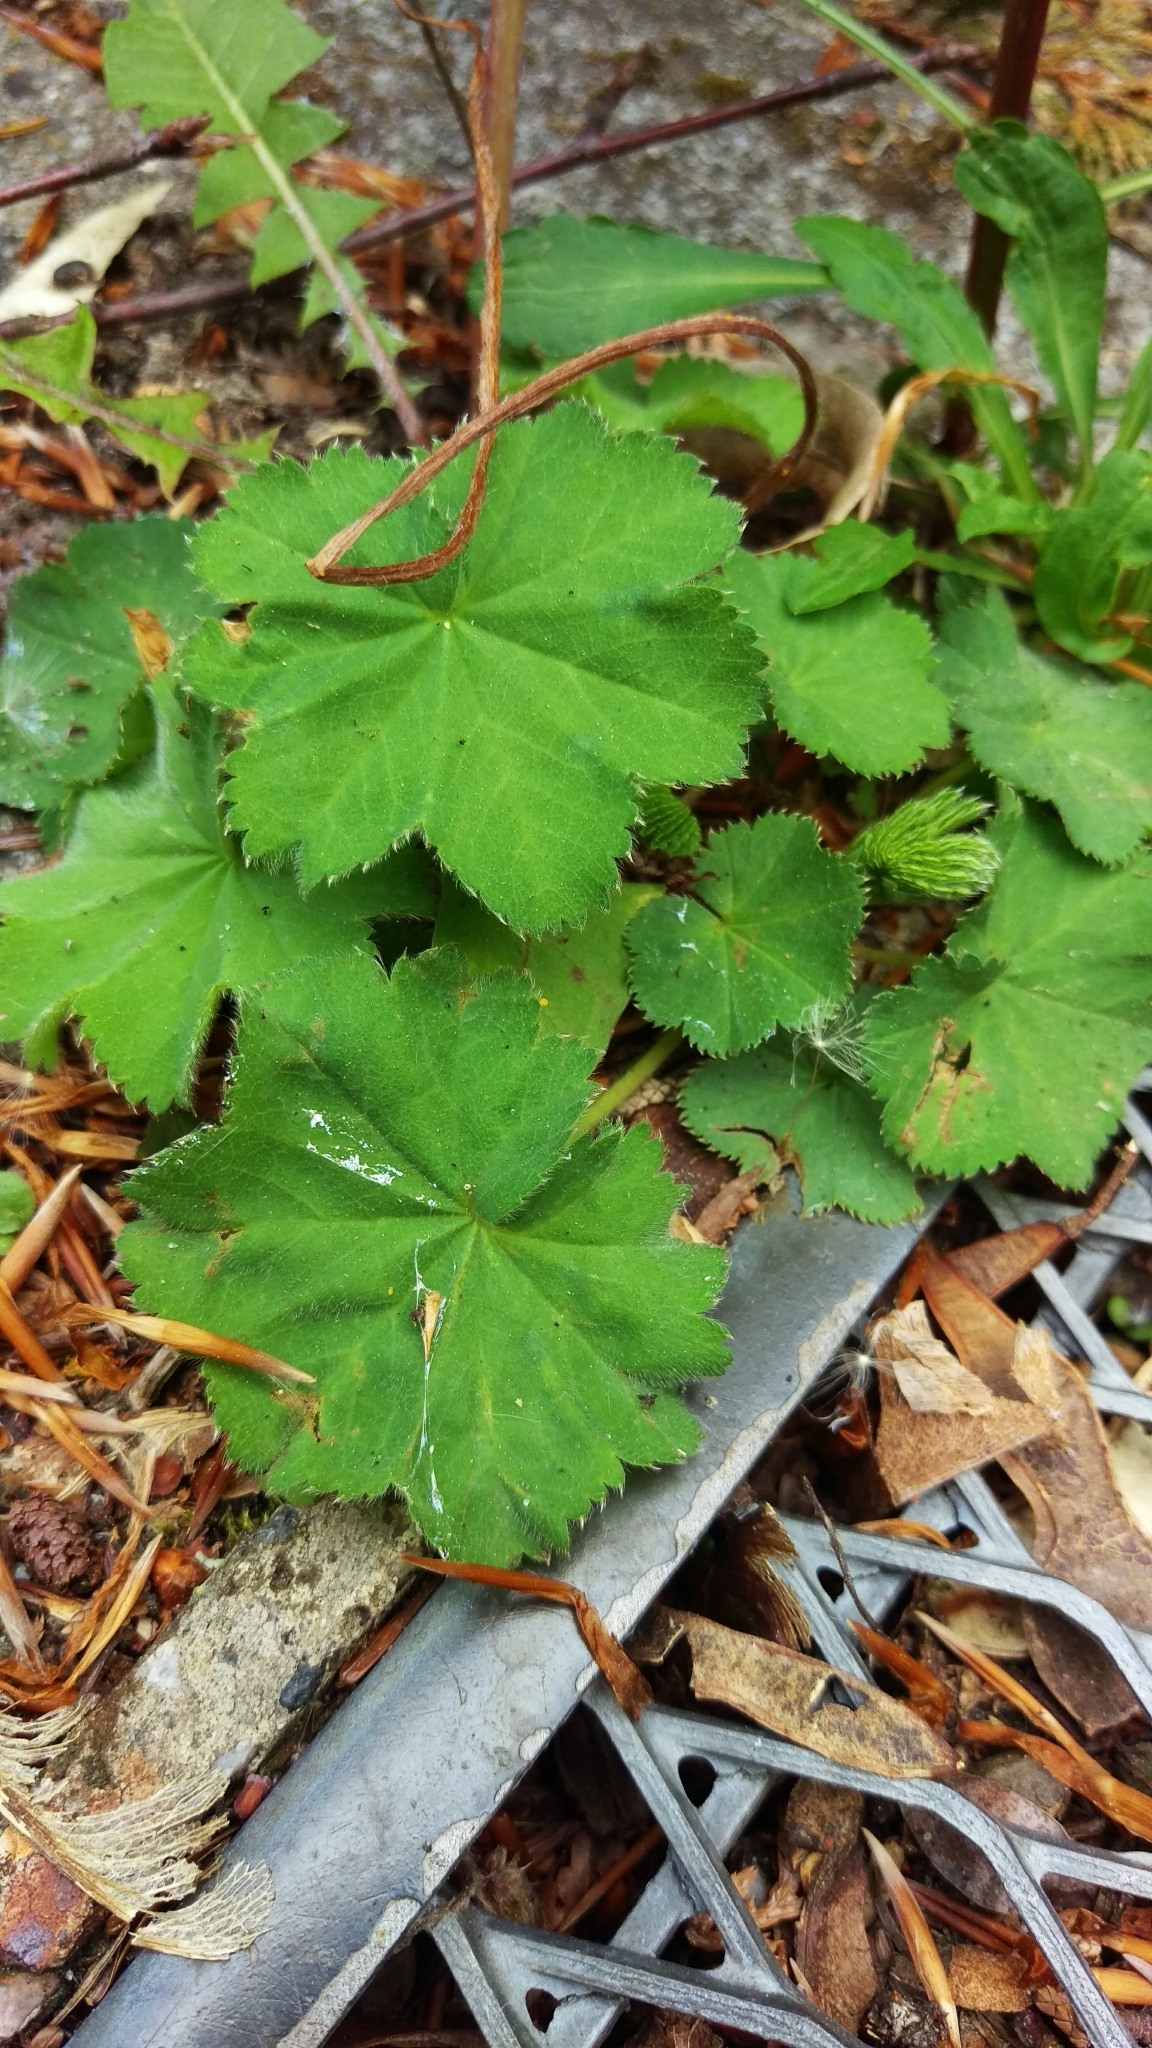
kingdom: Plantae
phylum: Tracheophyta
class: Magnoliopsida
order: Rosales
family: Rosaceae
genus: Alchemilla
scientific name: Alchemilla mollis
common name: Lady's-mantle
